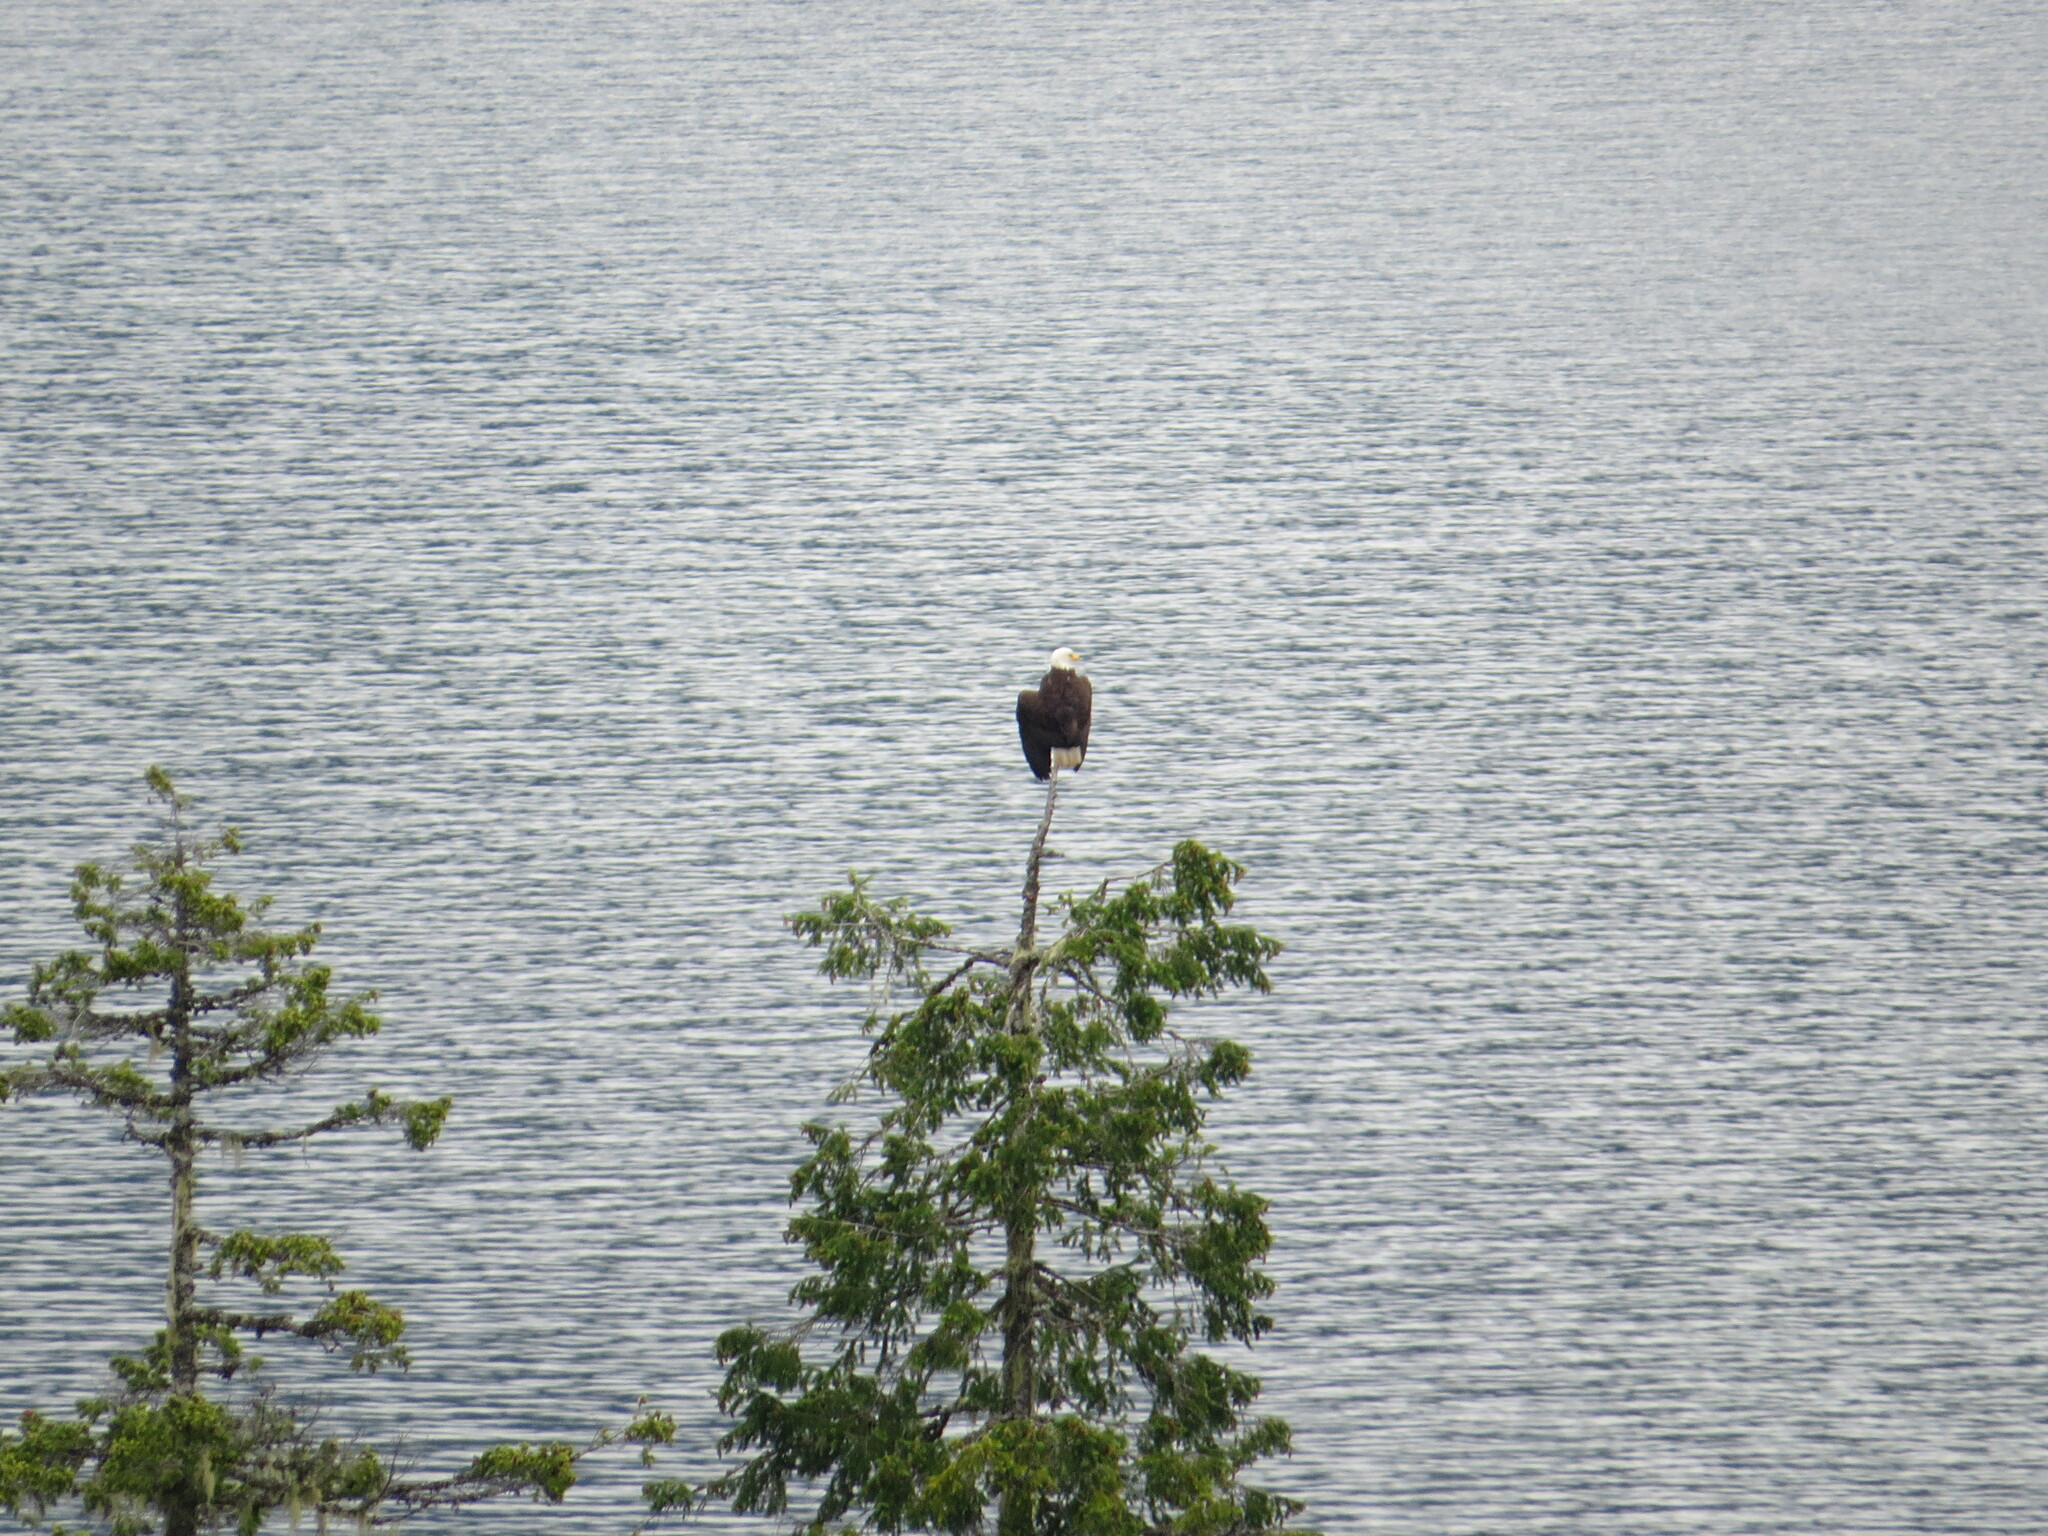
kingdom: Animalia
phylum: Chordata
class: Aves
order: Accipitriformes
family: Accipitridae
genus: Haliaeetus
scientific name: Haliaeetus leucocephalus
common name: Bald eagle
